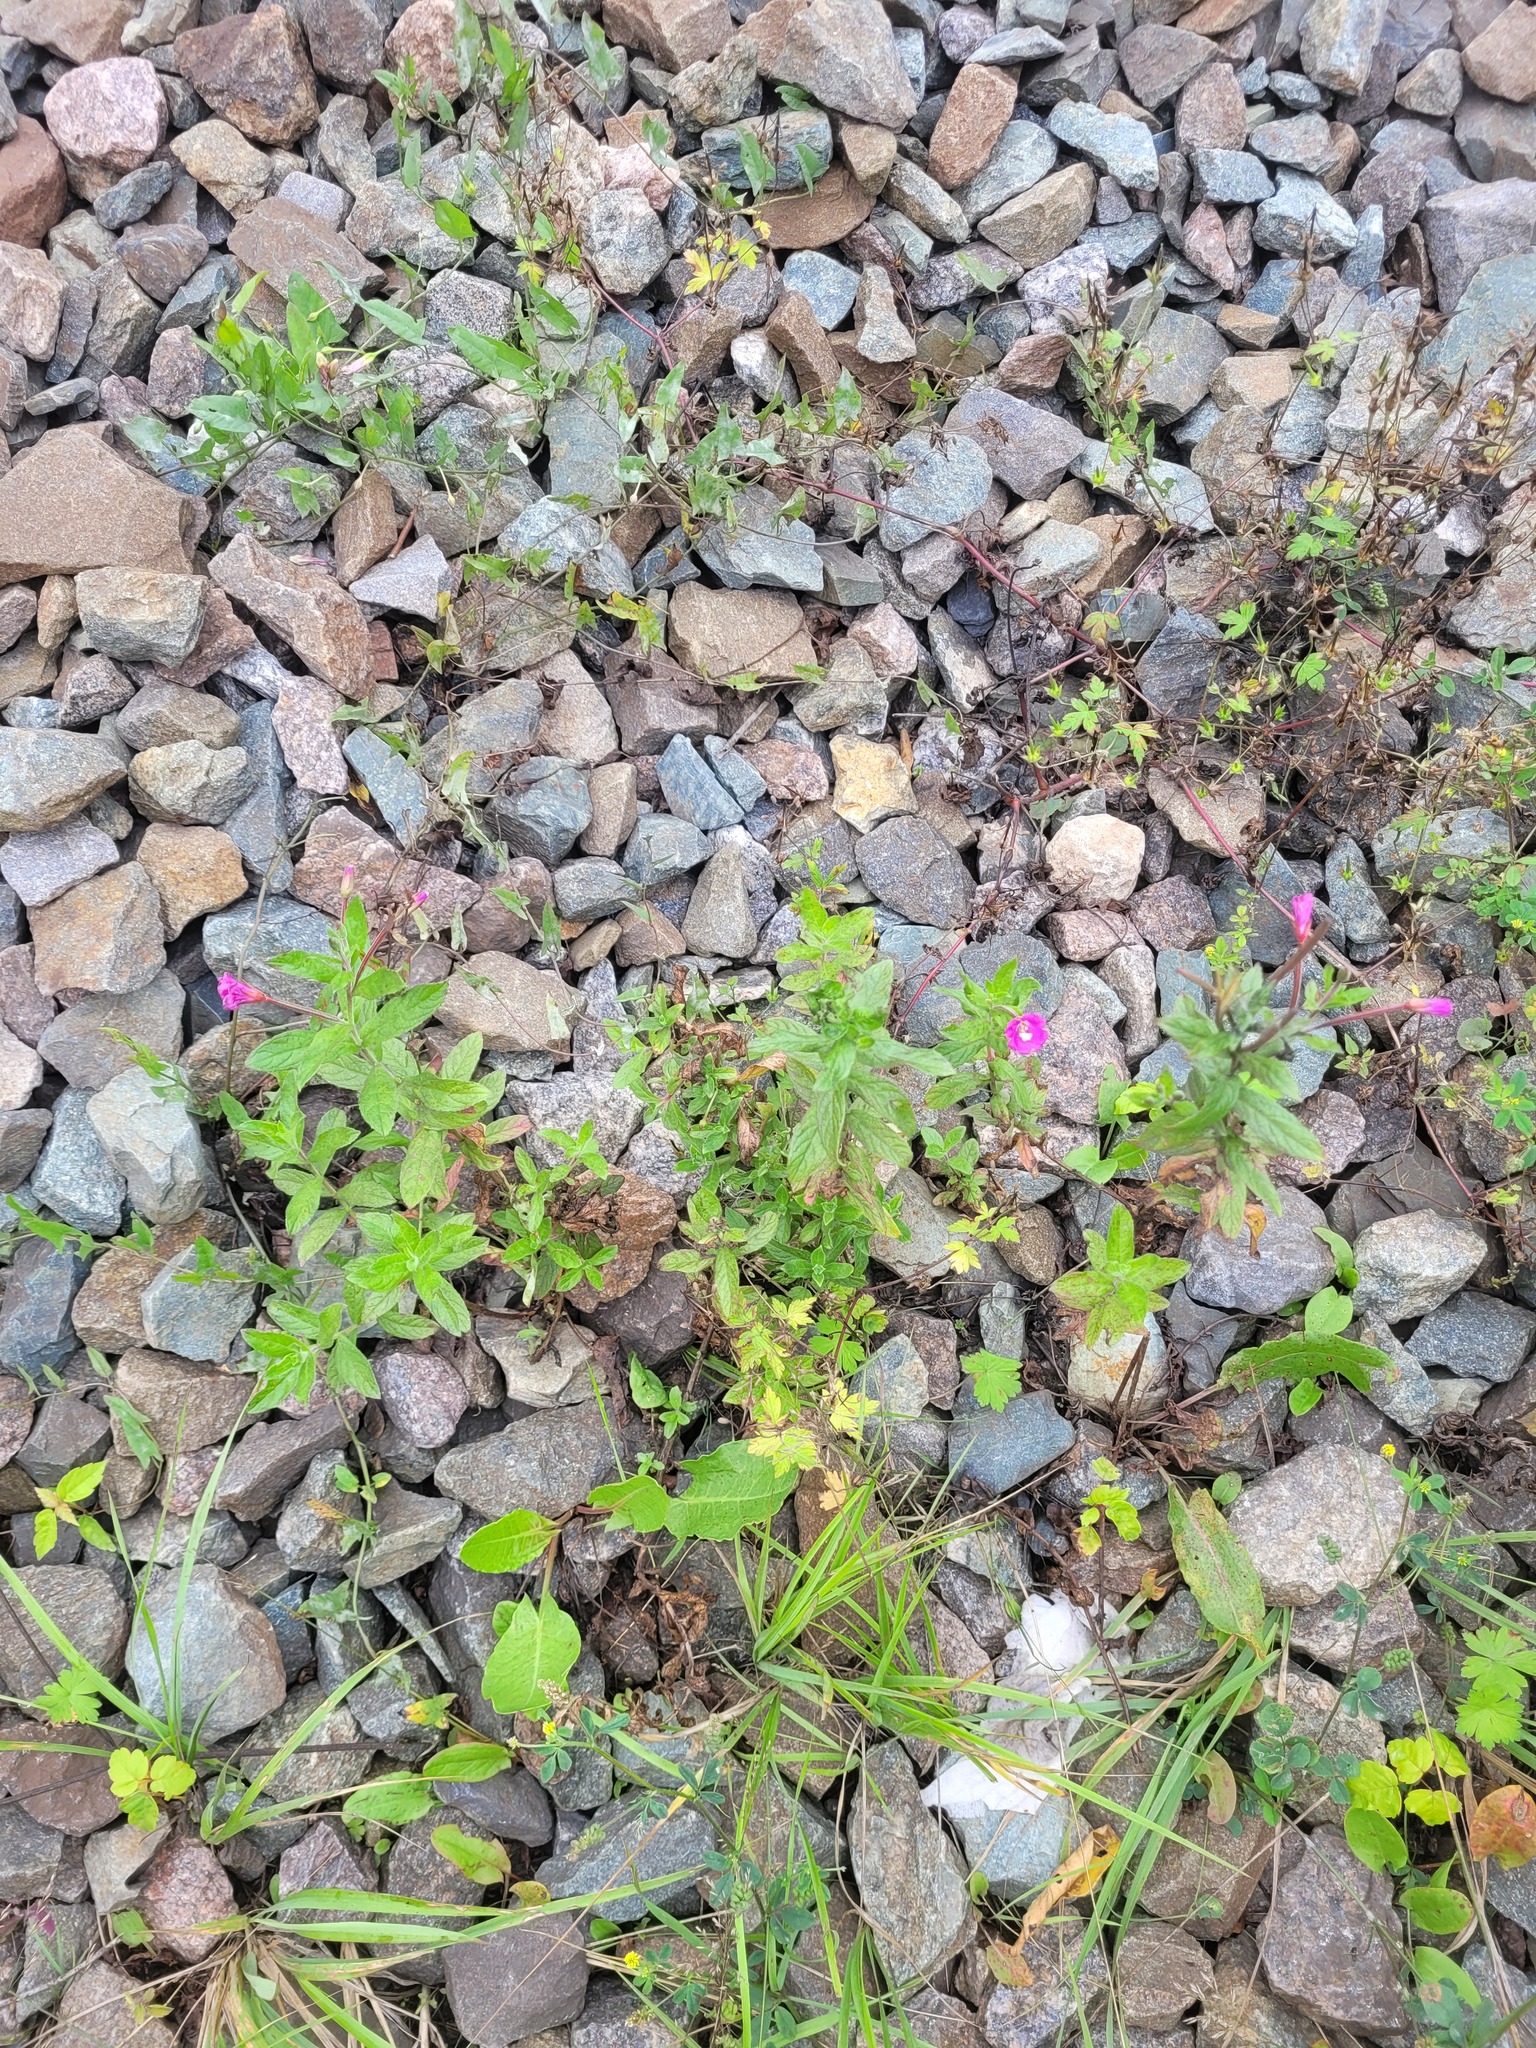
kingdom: Plantae
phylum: Tracheophyta
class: Magnoliopsida
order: Myrtales
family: Onagraceae
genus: Epilobium
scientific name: Epilobium hirsutum
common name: Great willowherb
